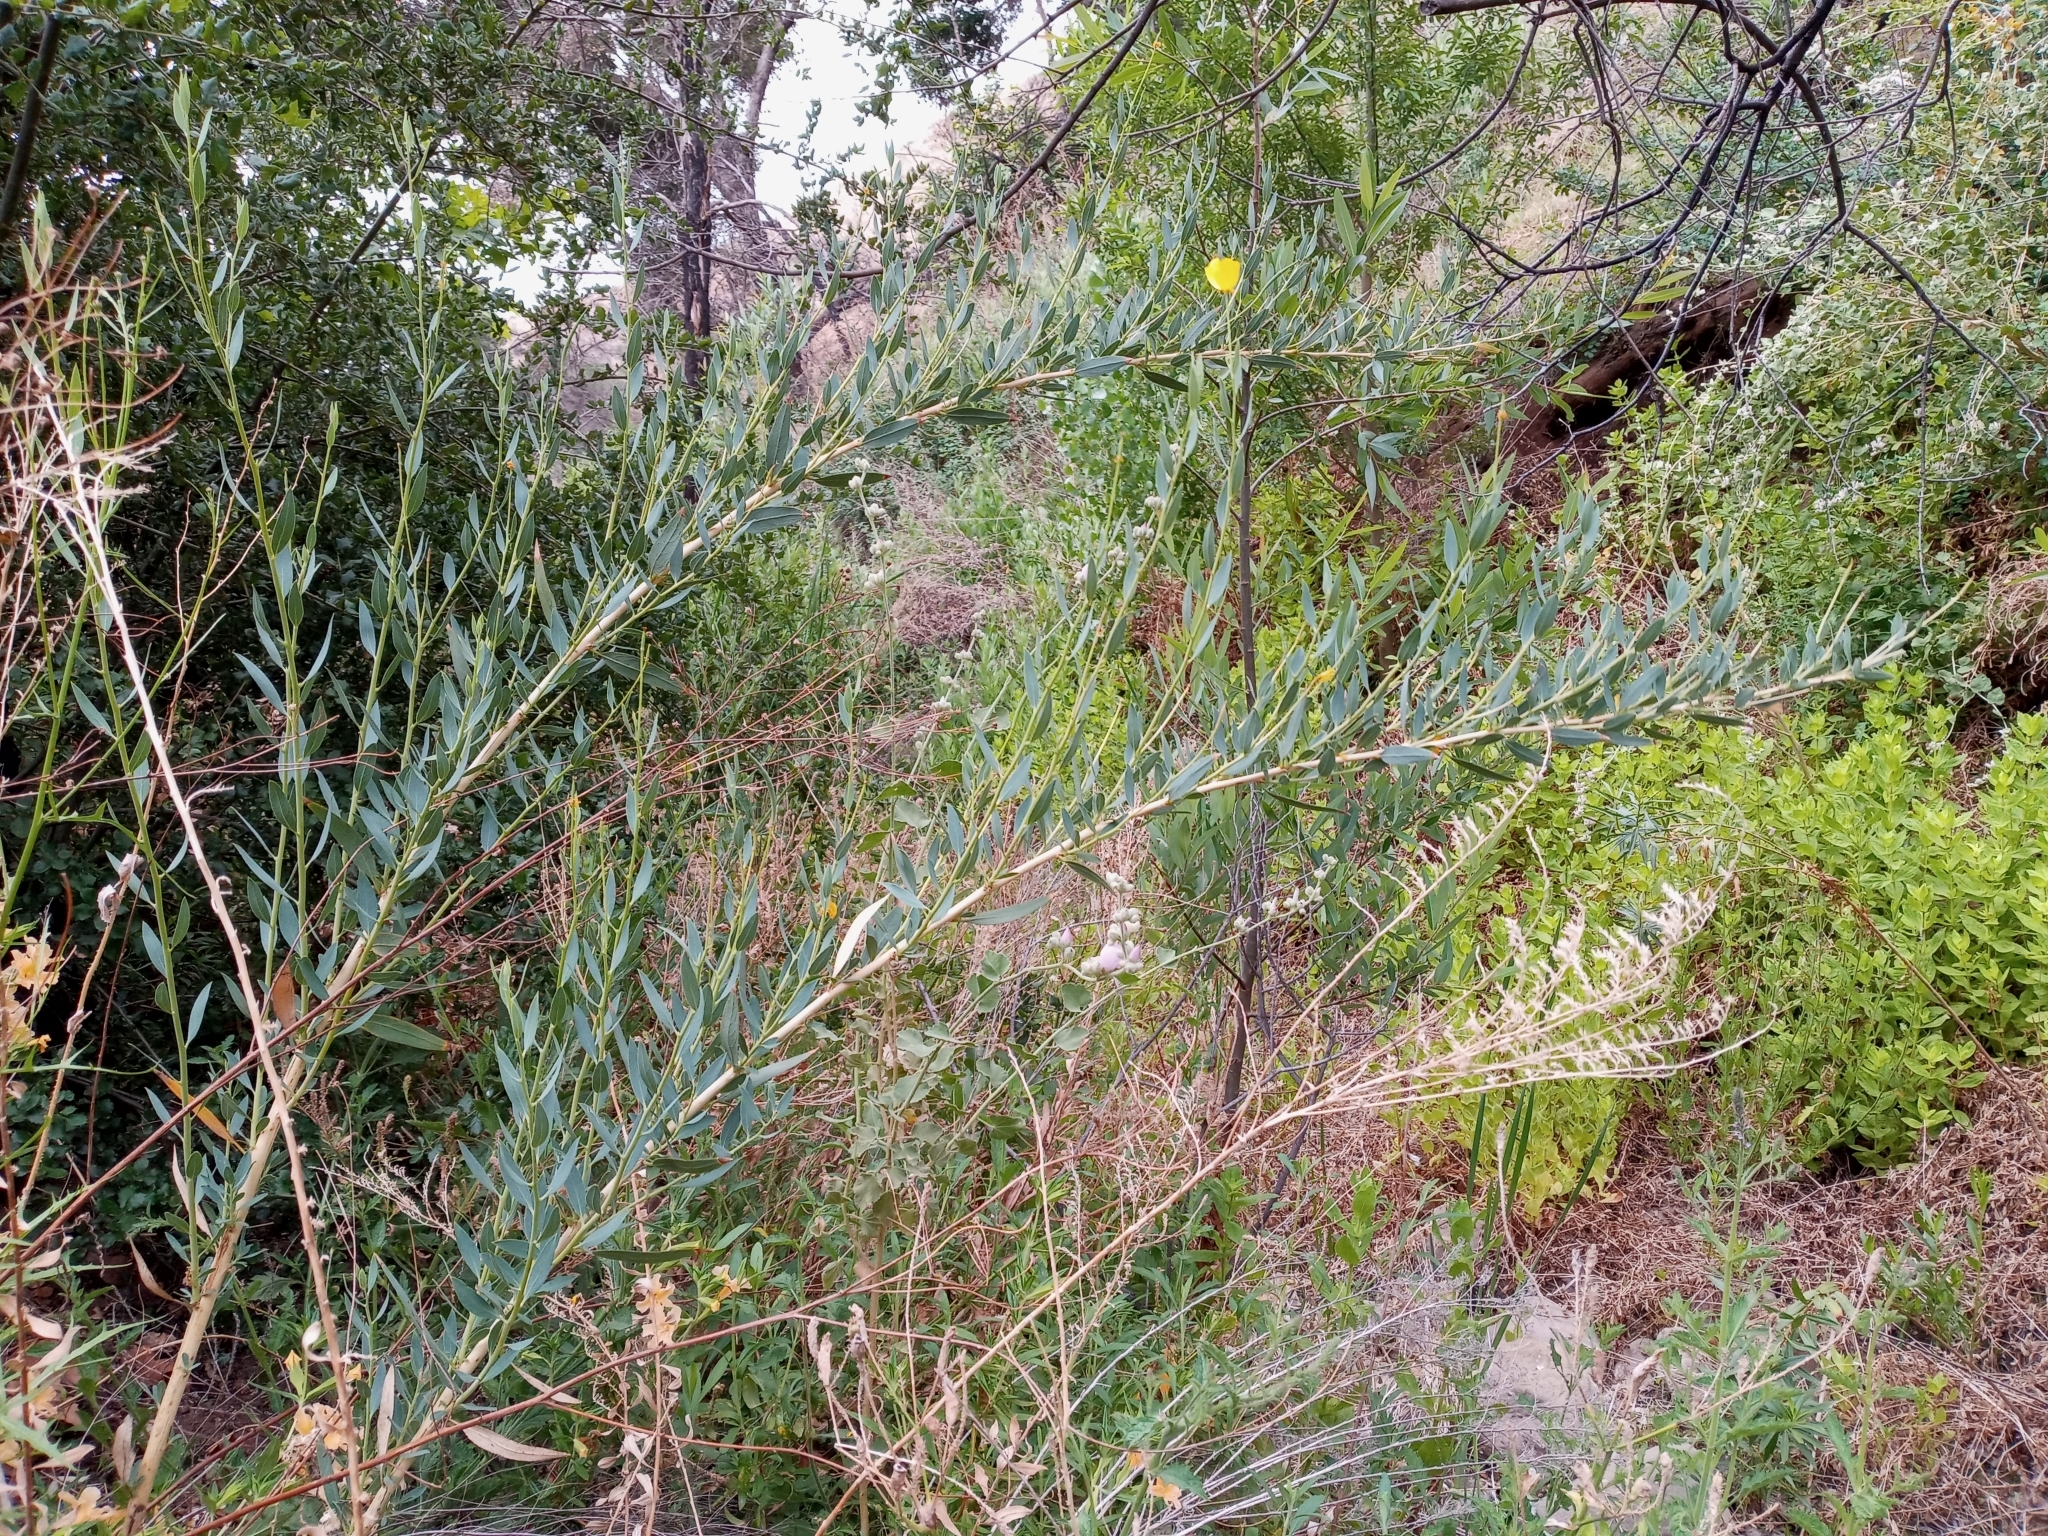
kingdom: Plantae
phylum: Tracheophyta
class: Magnoliopsida
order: Ranunculales
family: Papaveraceae
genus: Dendromecon
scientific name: Dendromecon rigida
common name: Tree poppy
